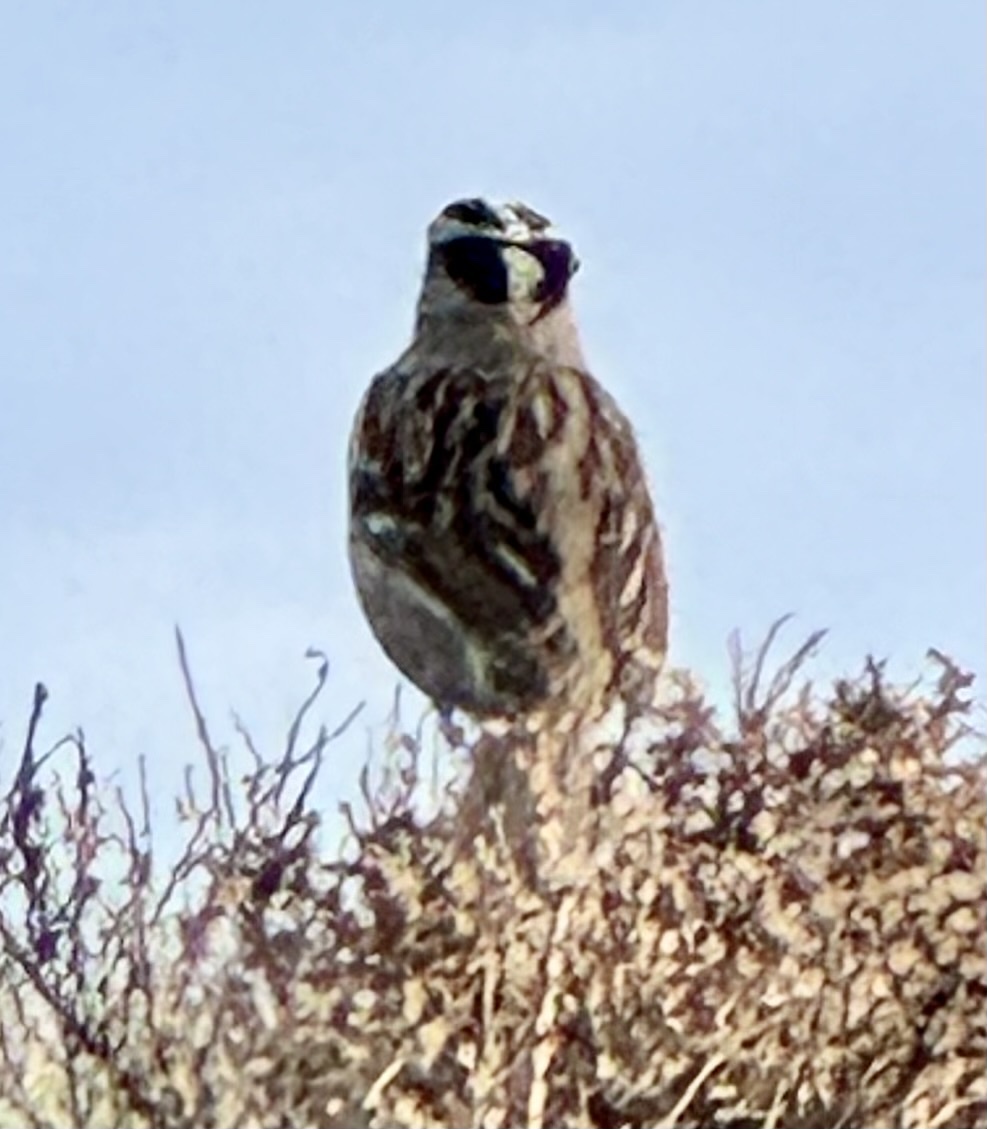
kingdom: Animalia
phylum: Chordata
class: Aves
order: Passeriformes
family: Passerellidae
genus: Zonotrichia
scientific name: Zonotrichia leucophrys
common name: White-crowned sparrow
